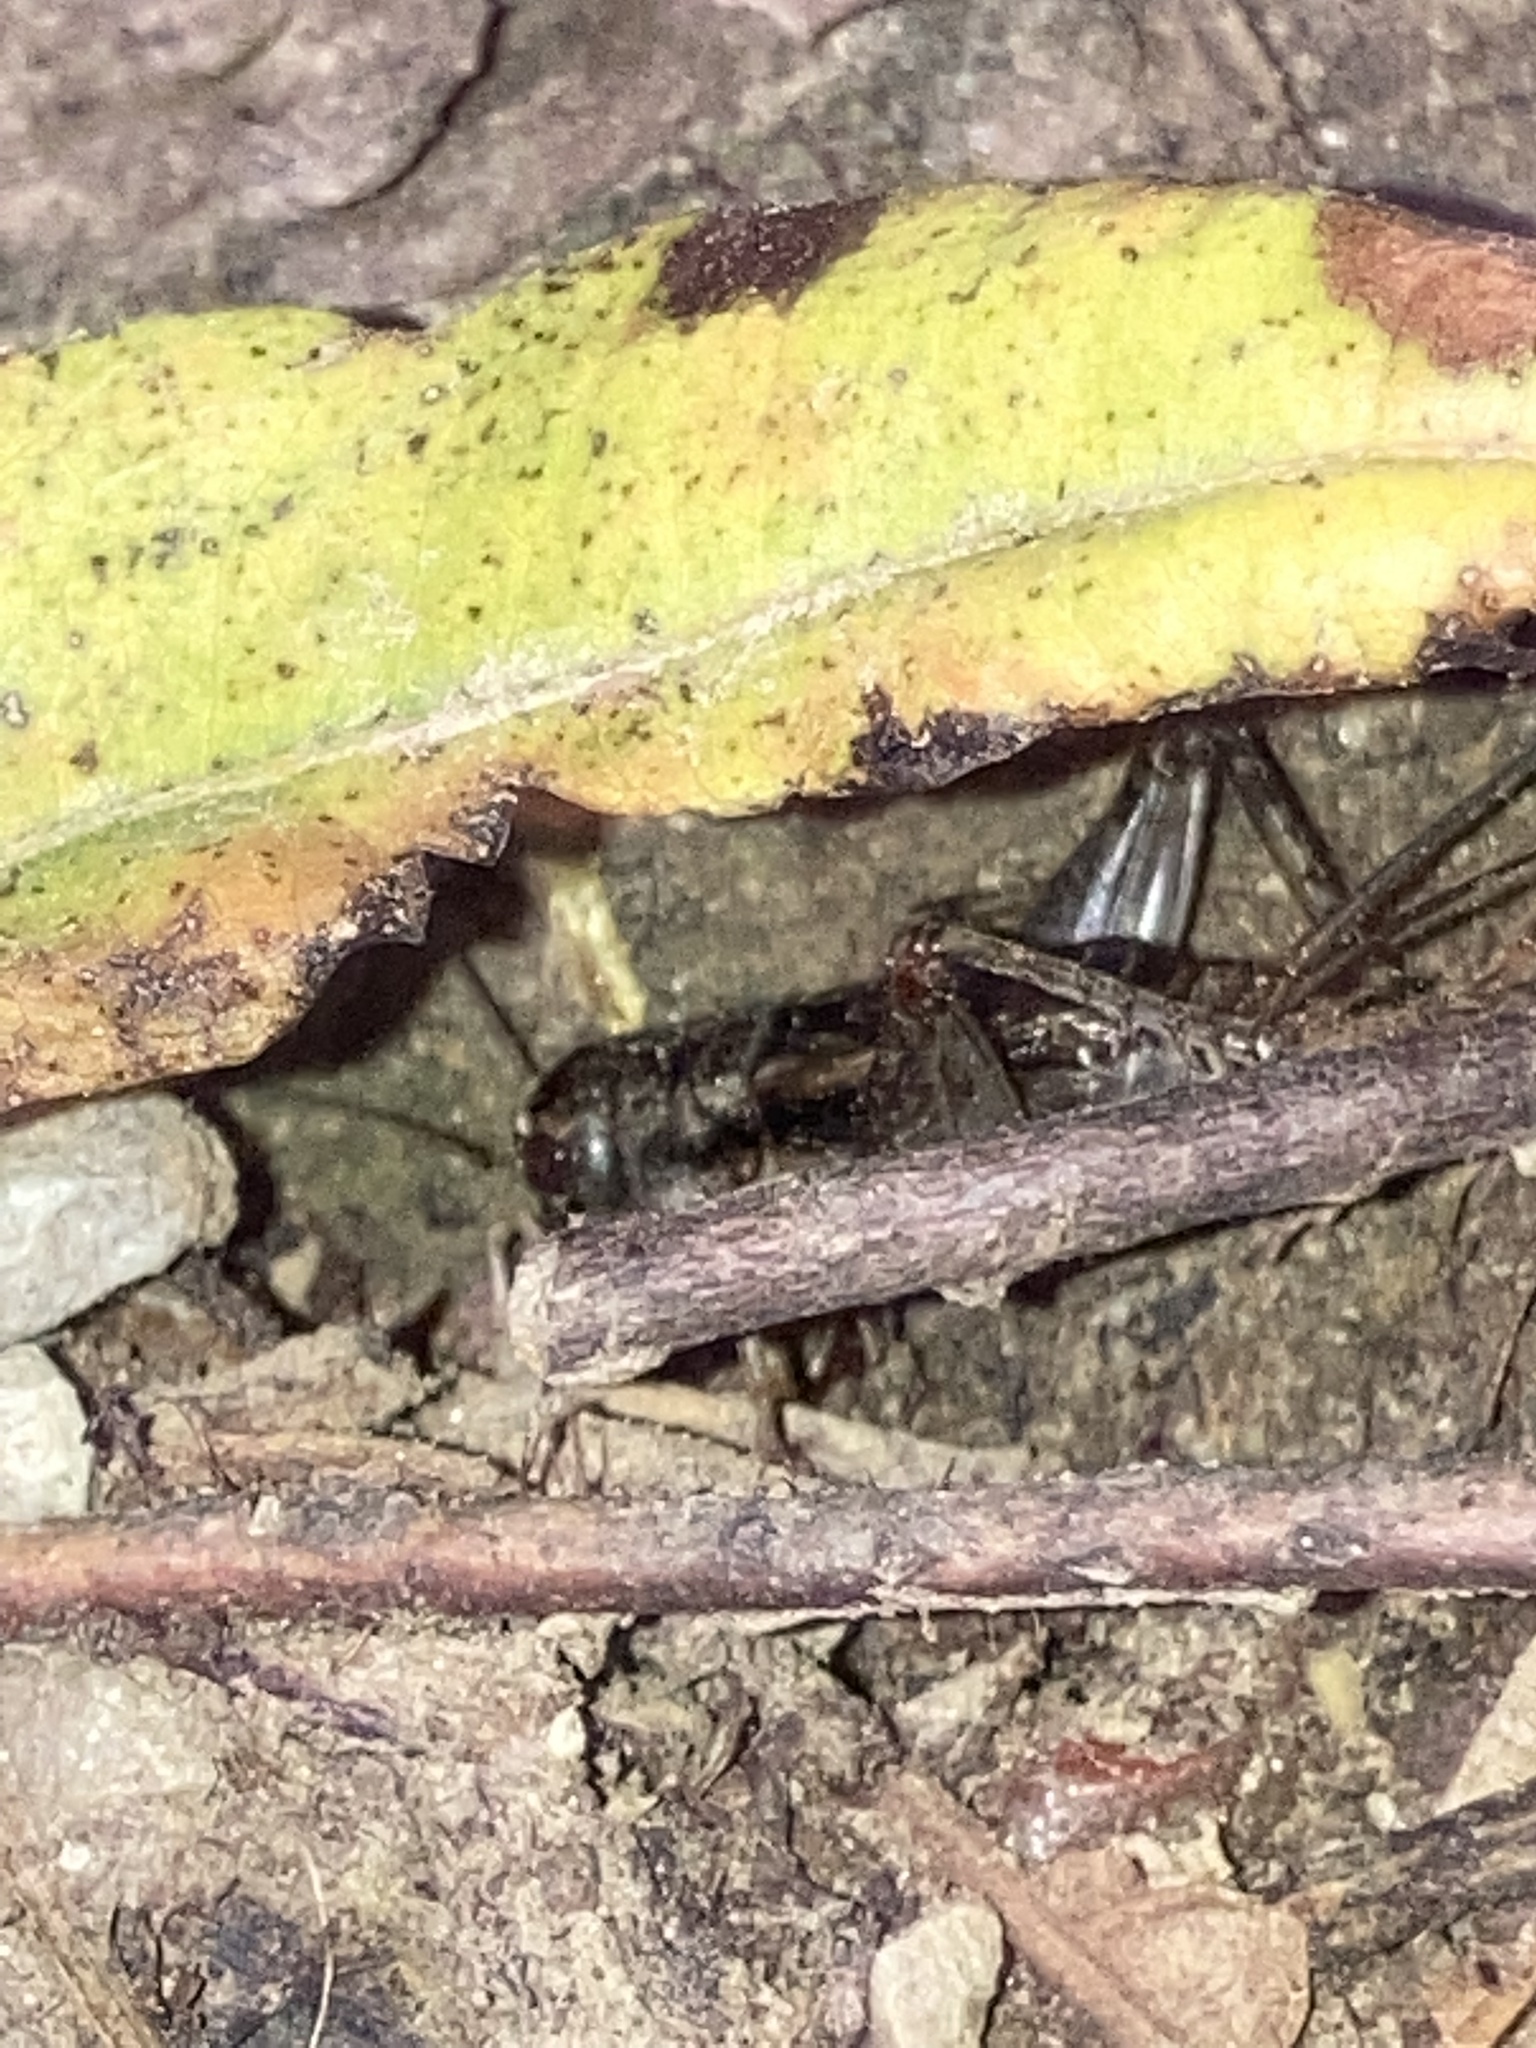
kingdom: Animalia
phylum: Arthropoda
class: Insecta
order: Orthoptera
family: Gryllidae
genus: Velarifictorus
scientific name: Velarifictorus micado
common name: Japanese burrowing cricket
